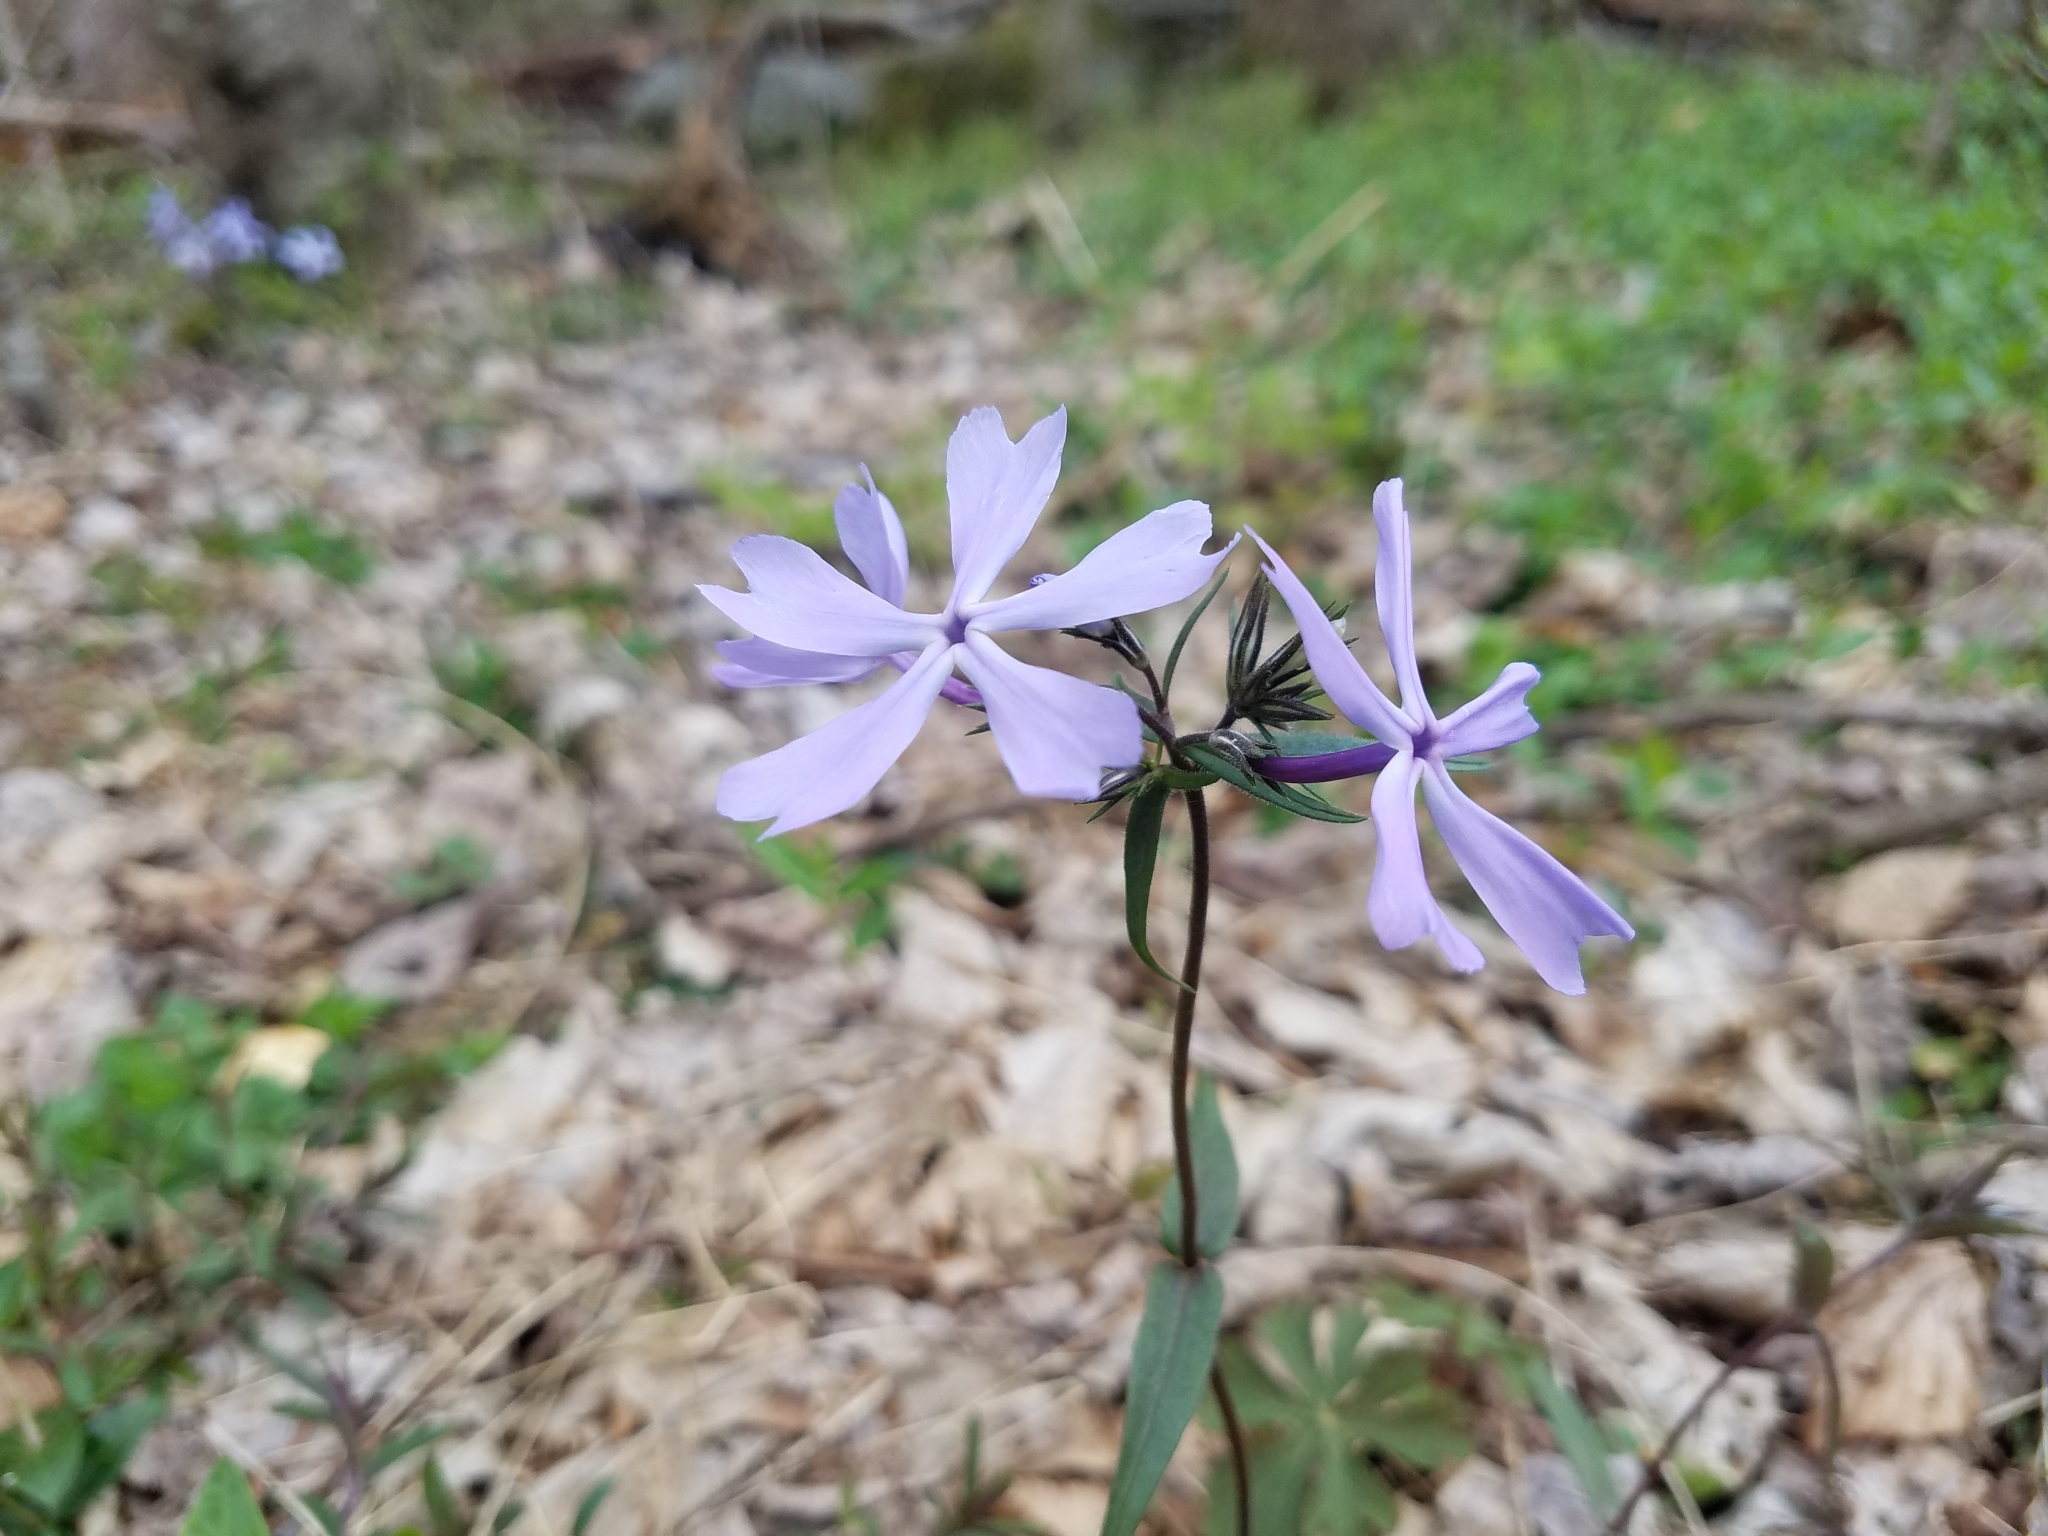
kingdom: Plantae
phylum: Tracheophyta
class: Magnoliopsida
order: Ericales
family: Polemoniaceae
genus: Phlox
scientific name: Phlox divaricata
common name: Blue phlox
